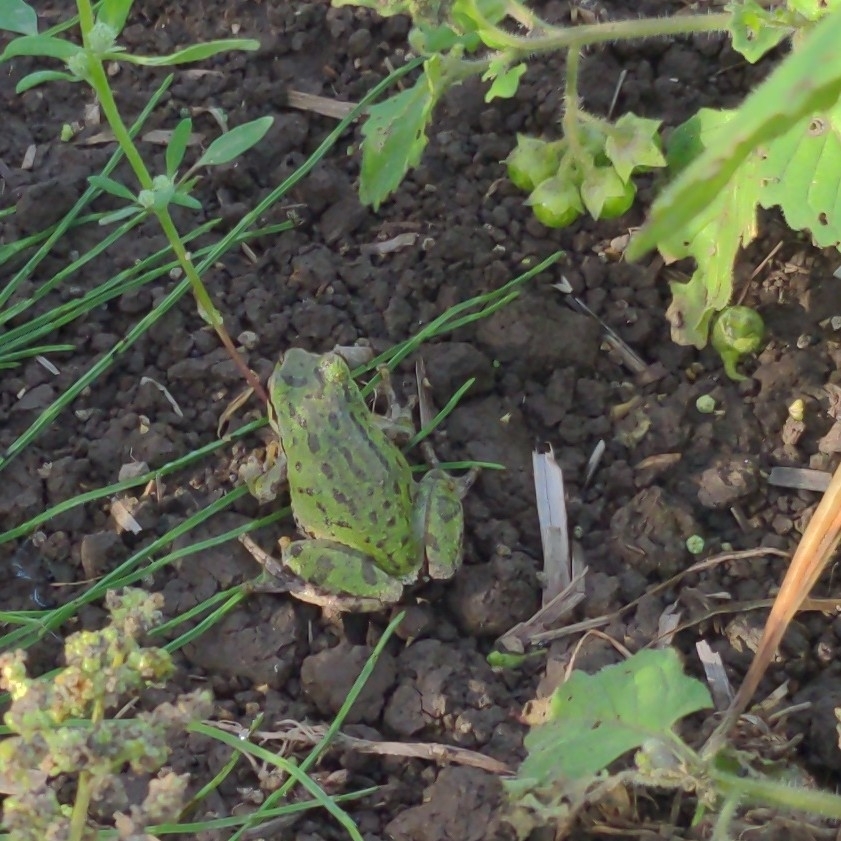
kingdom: Animalia
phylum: Chordata
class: Amphibia
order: Anura
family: Hylidae
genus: Pseudacris
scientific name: Pseudacris regilla
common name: Pacific chorus frog
